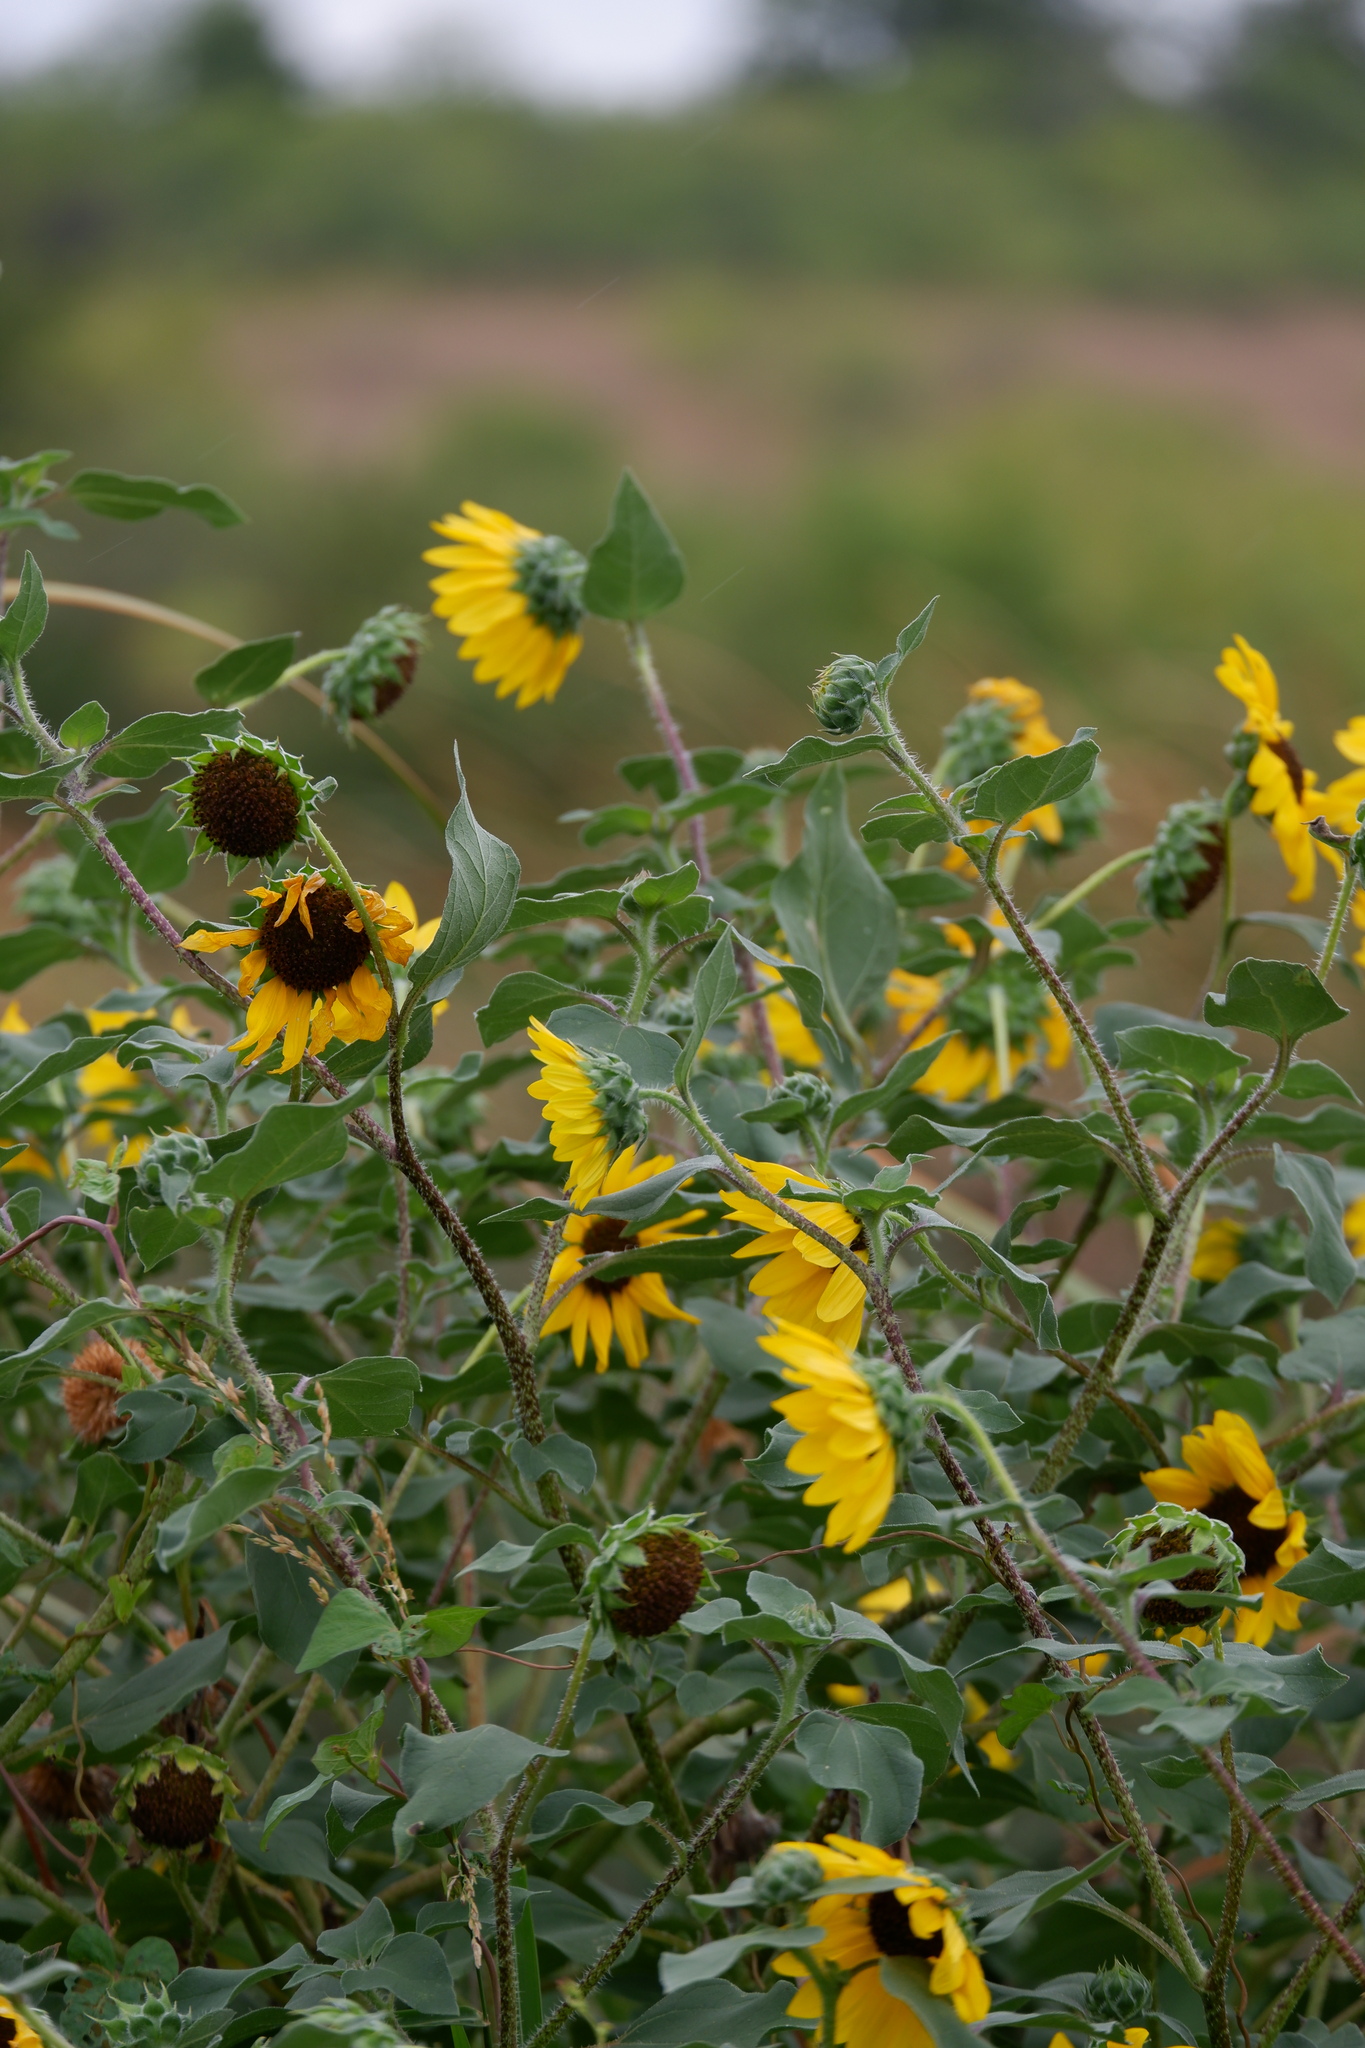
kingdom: Plantae
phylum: Tracheophyta
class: Magnoliopsida
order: Asterales
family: Asteraceae
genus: Helianthus
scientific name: Helianthus annuus
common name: Sunflower
